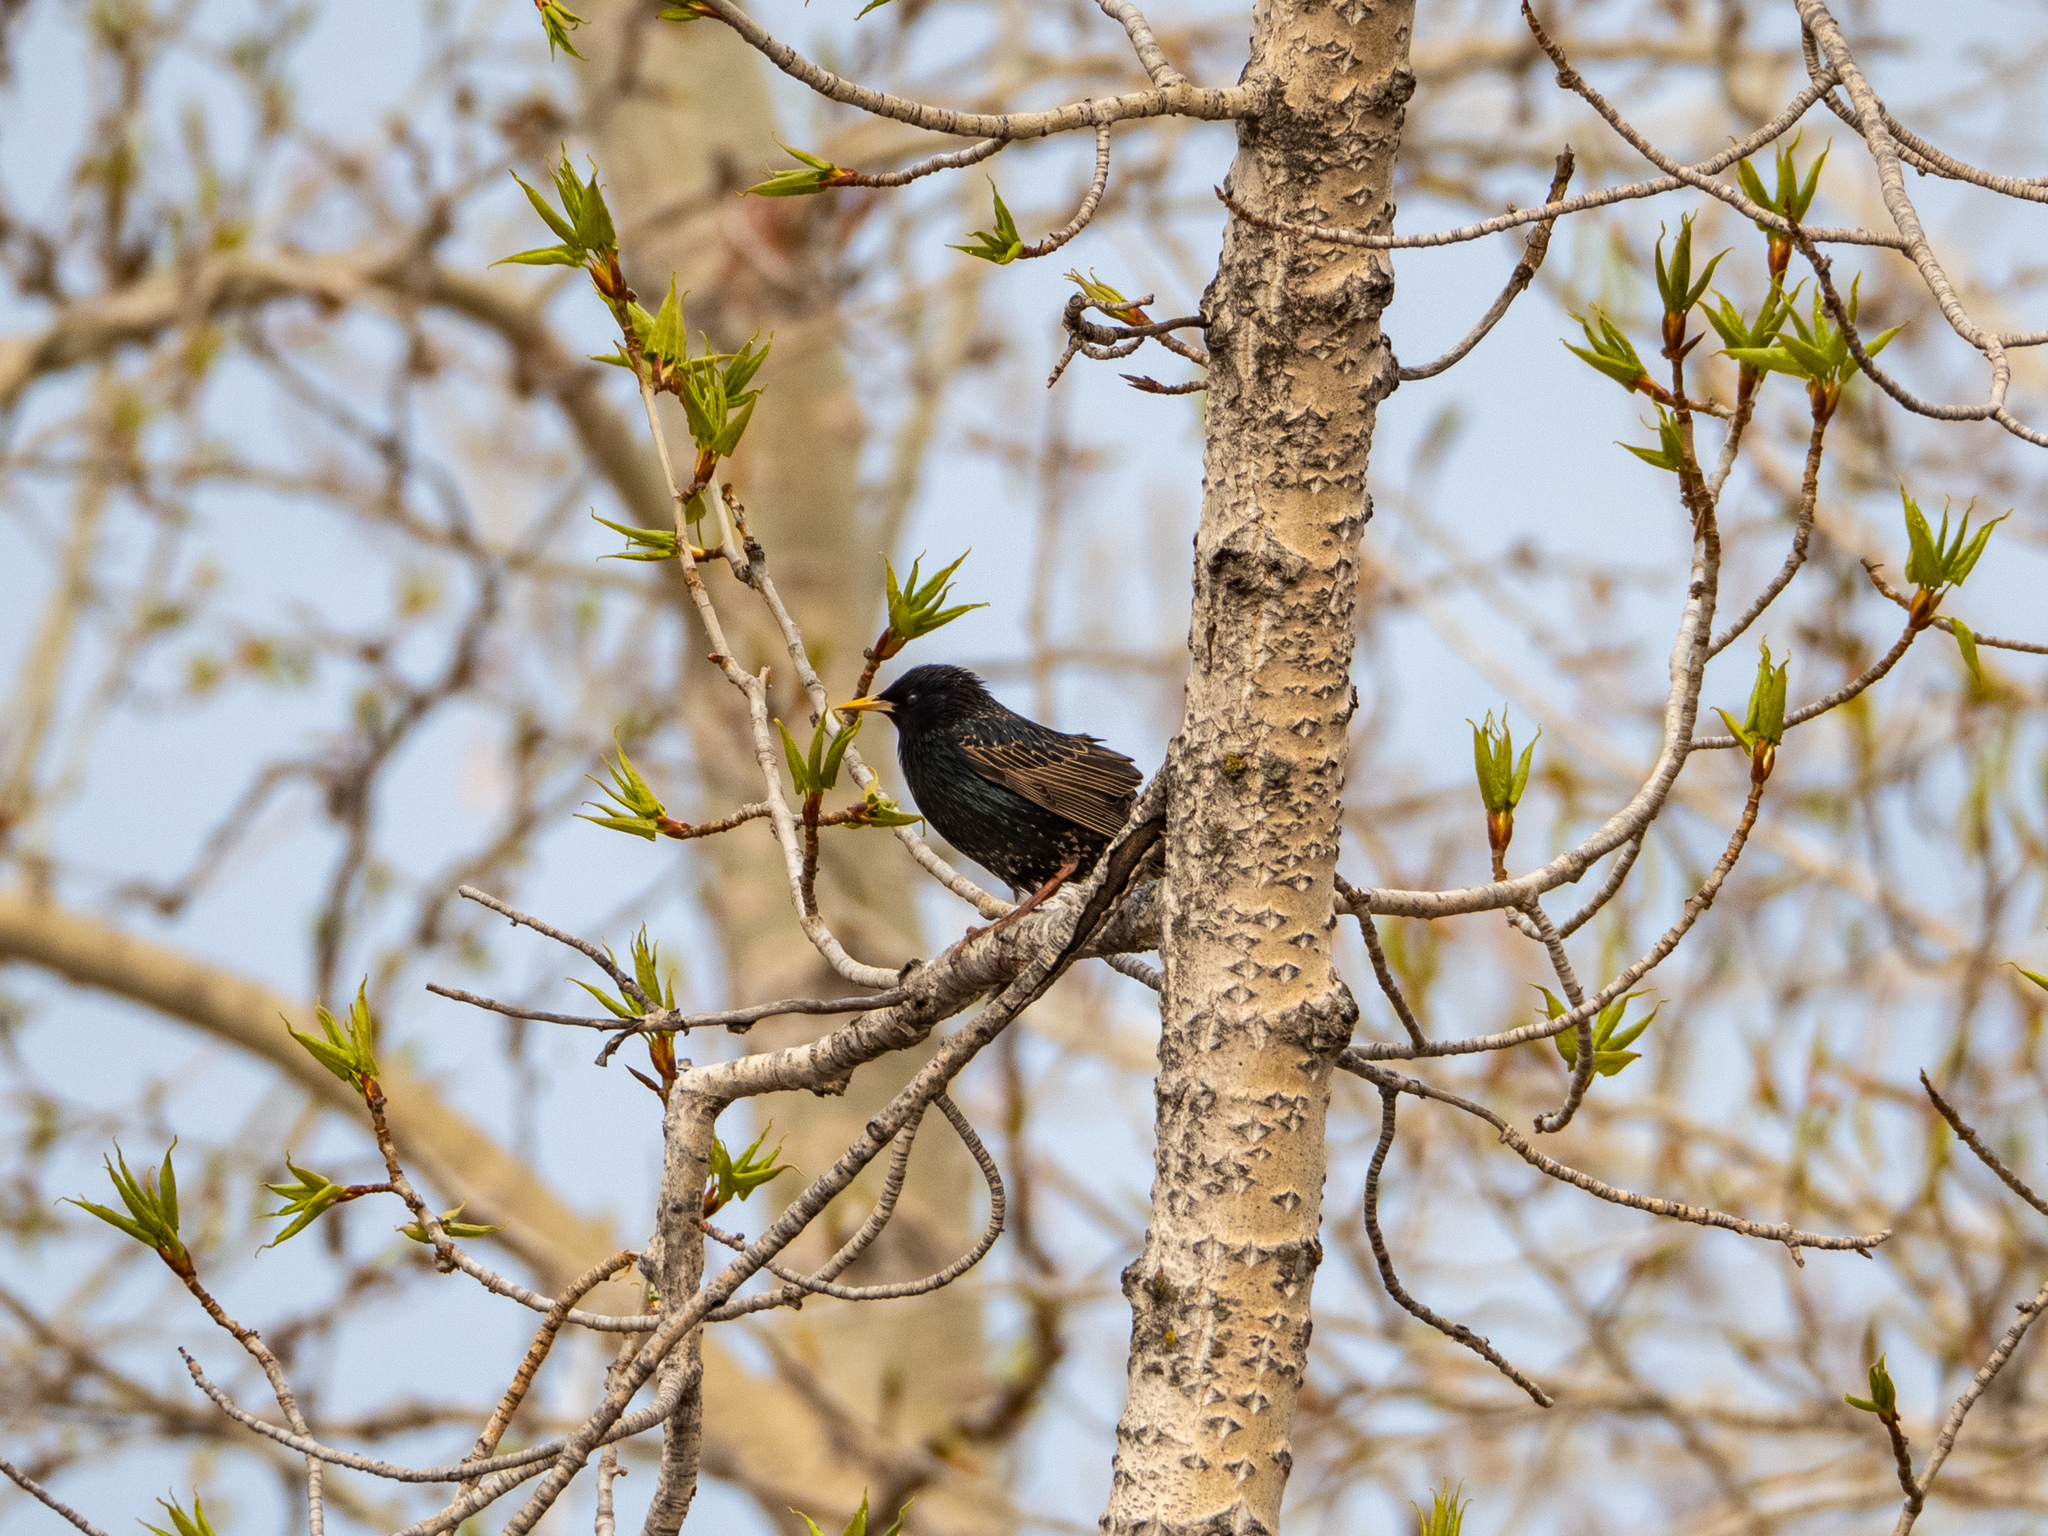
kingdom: Animalia
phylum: Chordata
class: Aves
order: Passeriformes
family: Sturnidae
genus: Sturnus
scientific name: Sturnus vulgaris
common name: Common starling
